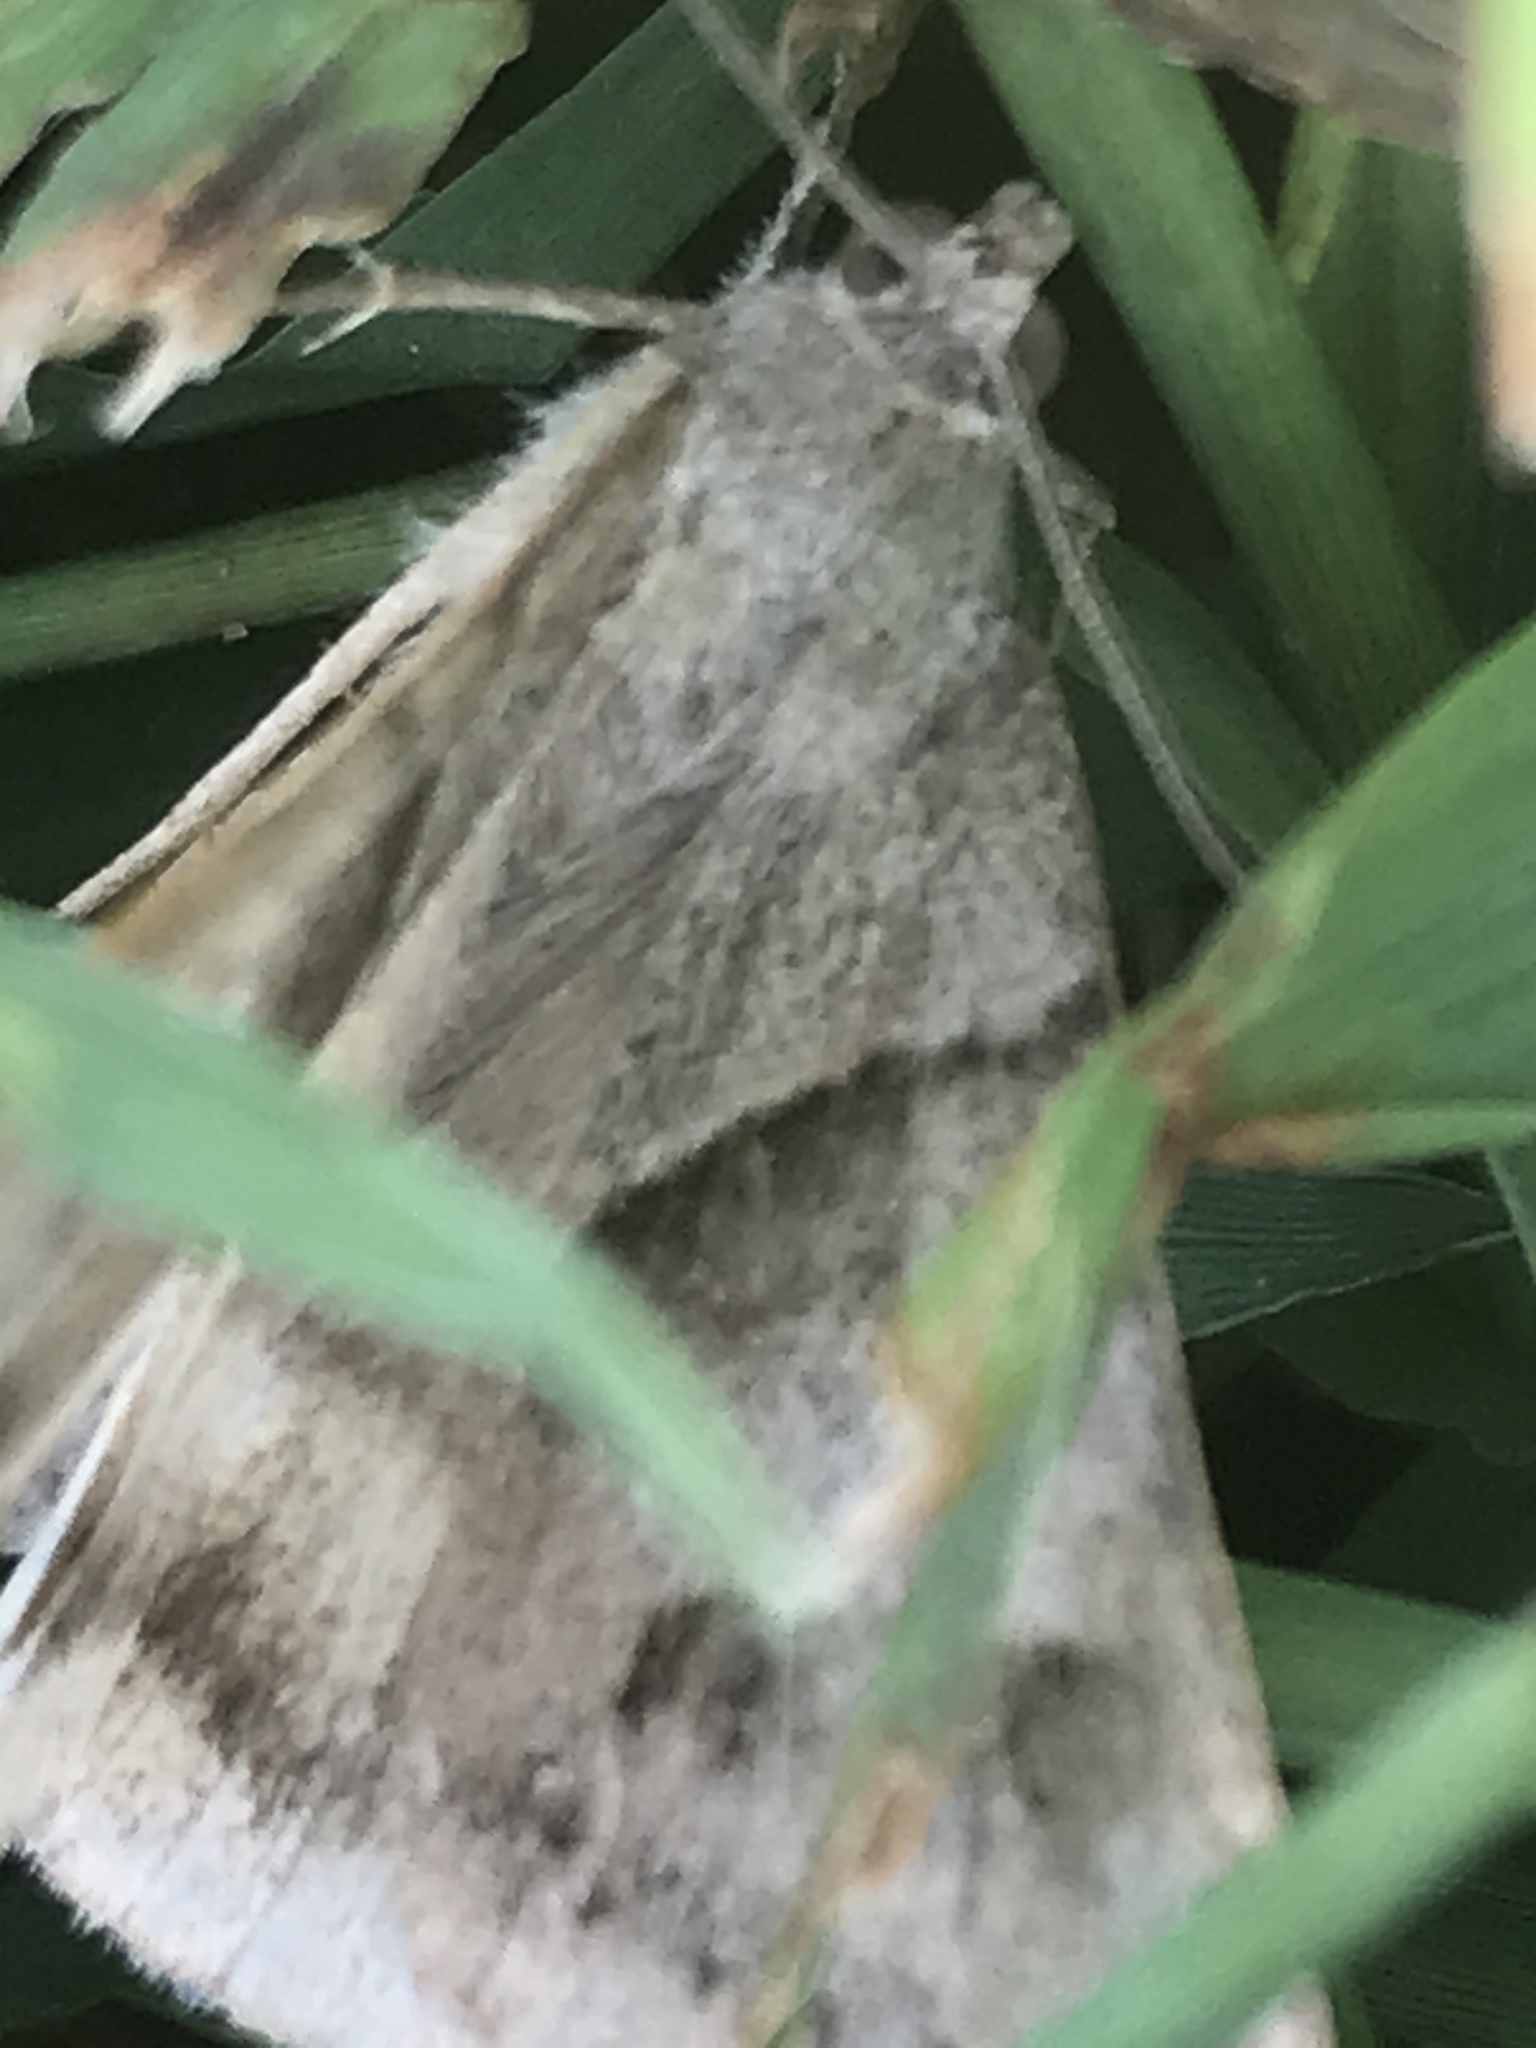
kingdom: Animalia
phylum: Arthropoda
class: Insecta
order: Lepidoptera
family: Erebidae
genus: Caenurgina
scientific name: Caenurgina erechtea
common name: Forage looper moth
